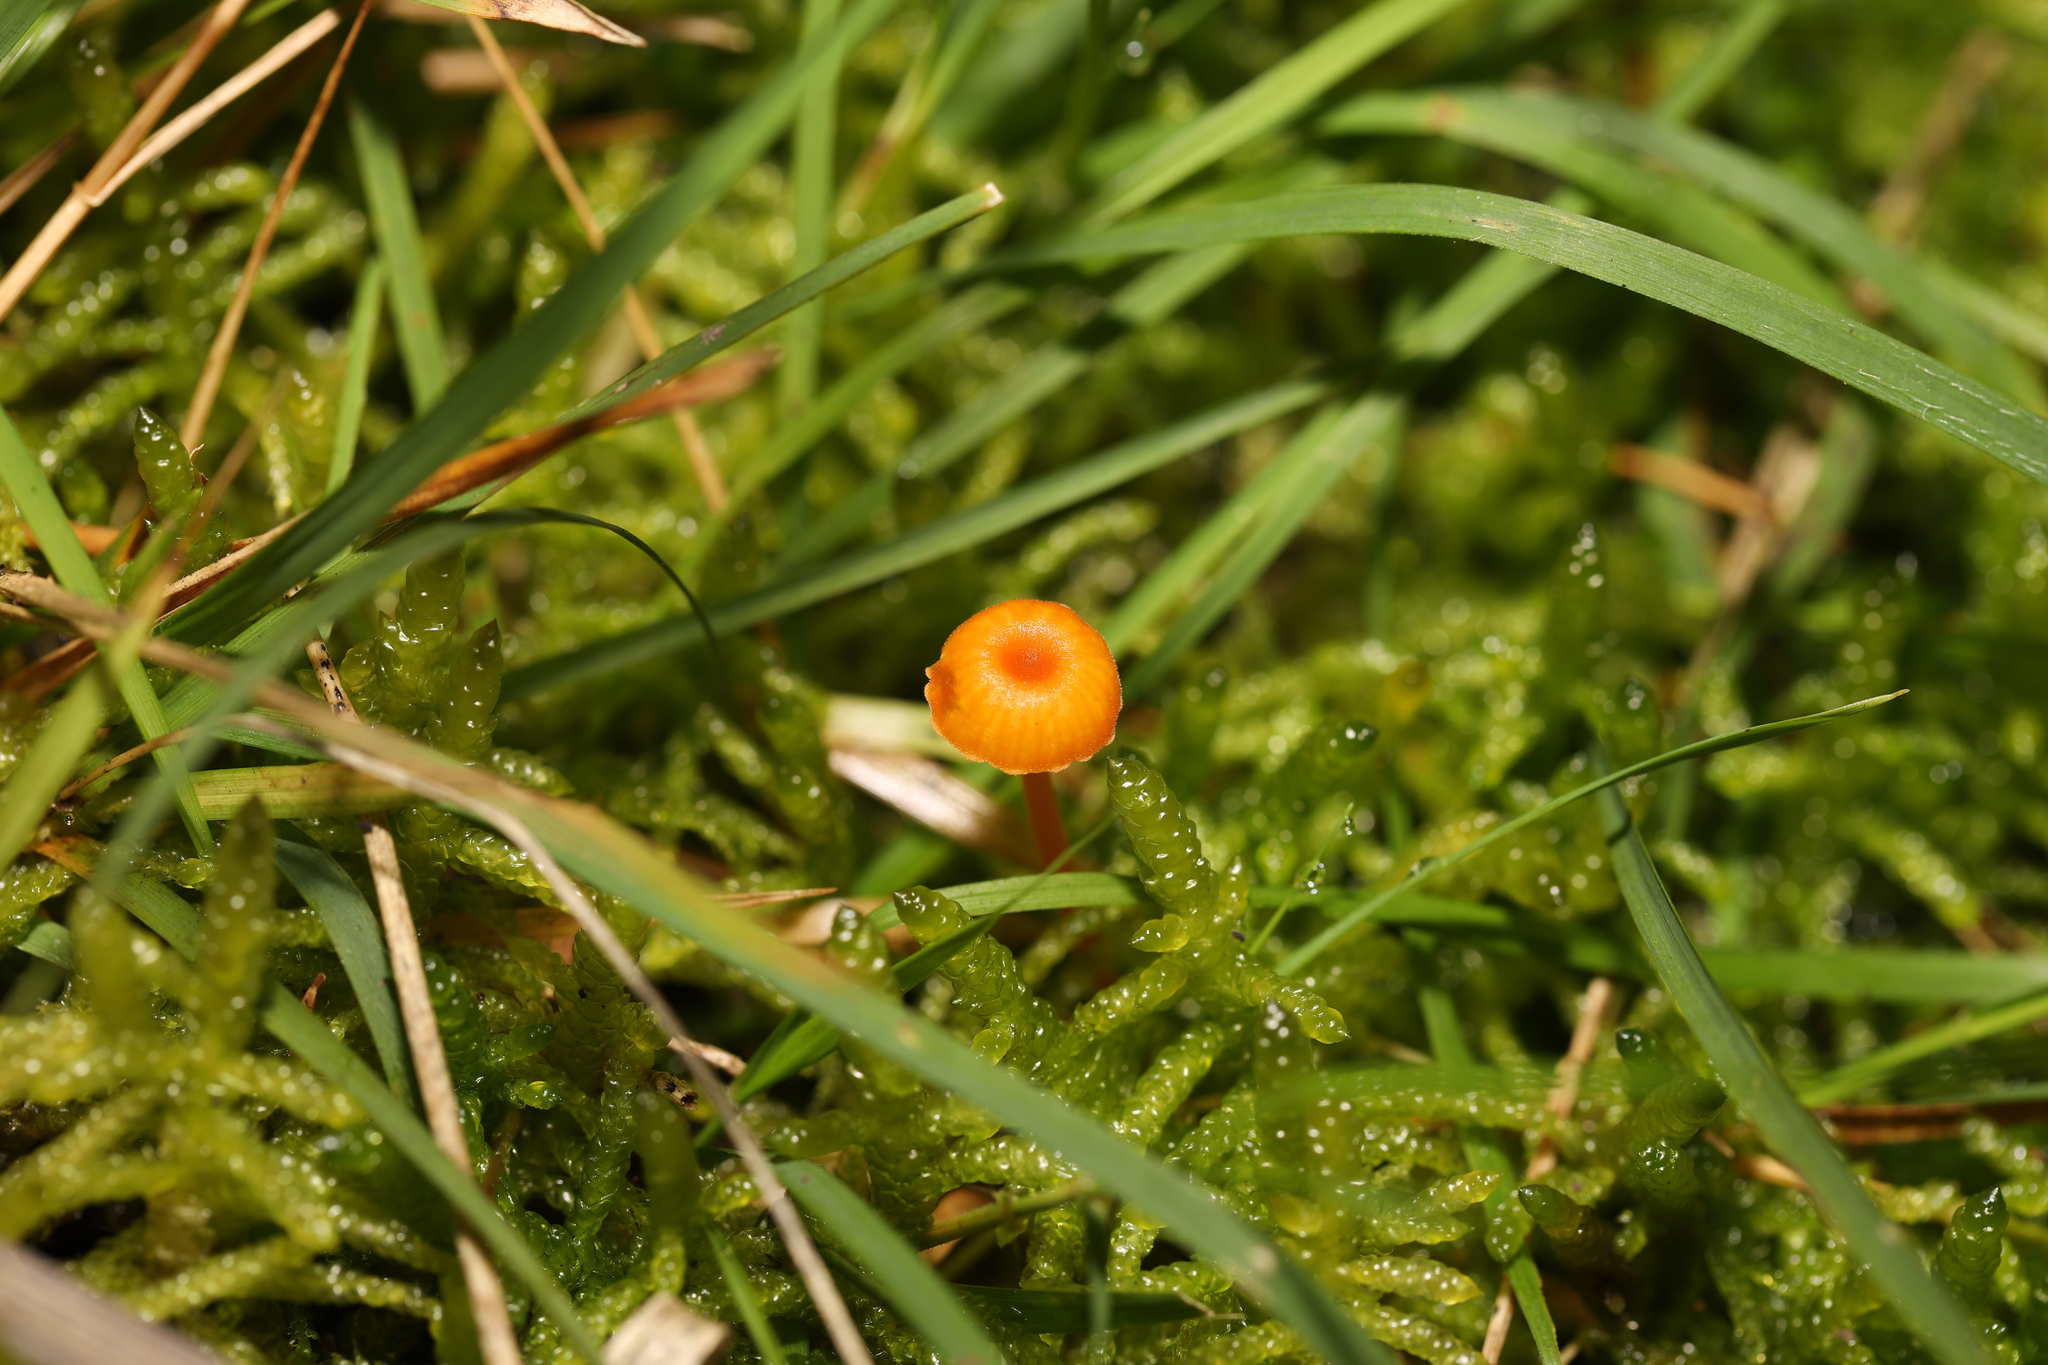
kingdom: Fungi
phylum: Basidiomycota
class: Agaricomycetes
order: Hymenochaetales
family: Rickenellaceae
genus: Rickenella
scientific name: Rickenella fibula
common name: Orange mosscap
